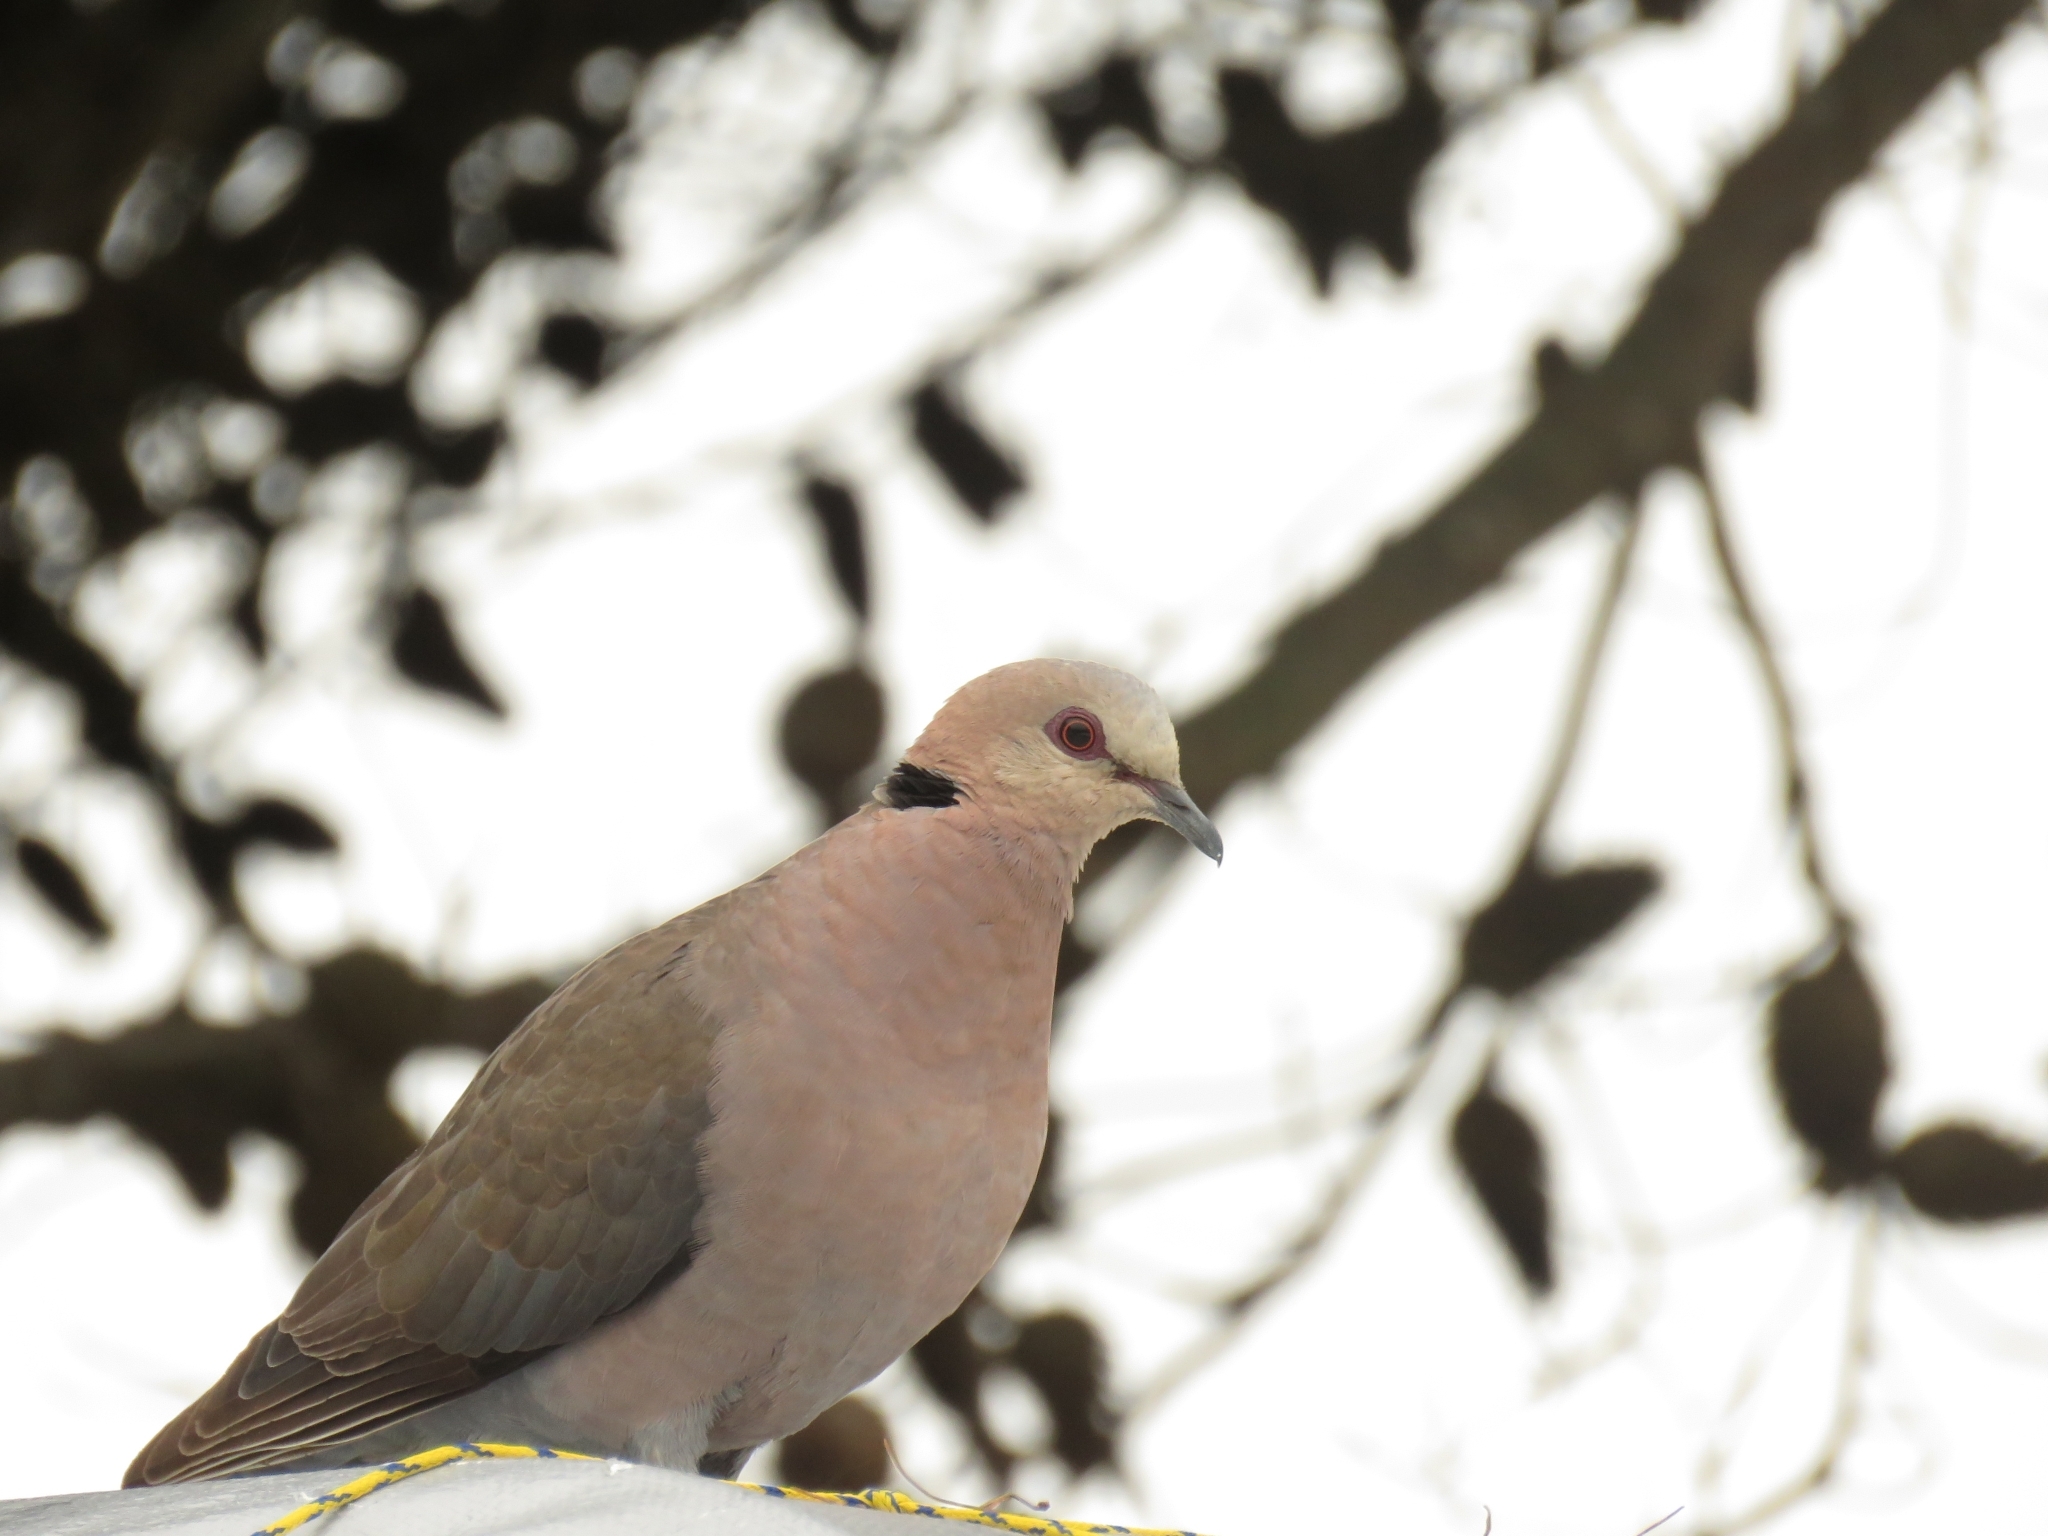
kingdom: Animalia
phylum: Chordata
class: Aves
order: Columbiformes
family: Columbidae
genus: Streptopelia
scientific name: Streptopelia semitorquata
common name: Red-eyed dove
